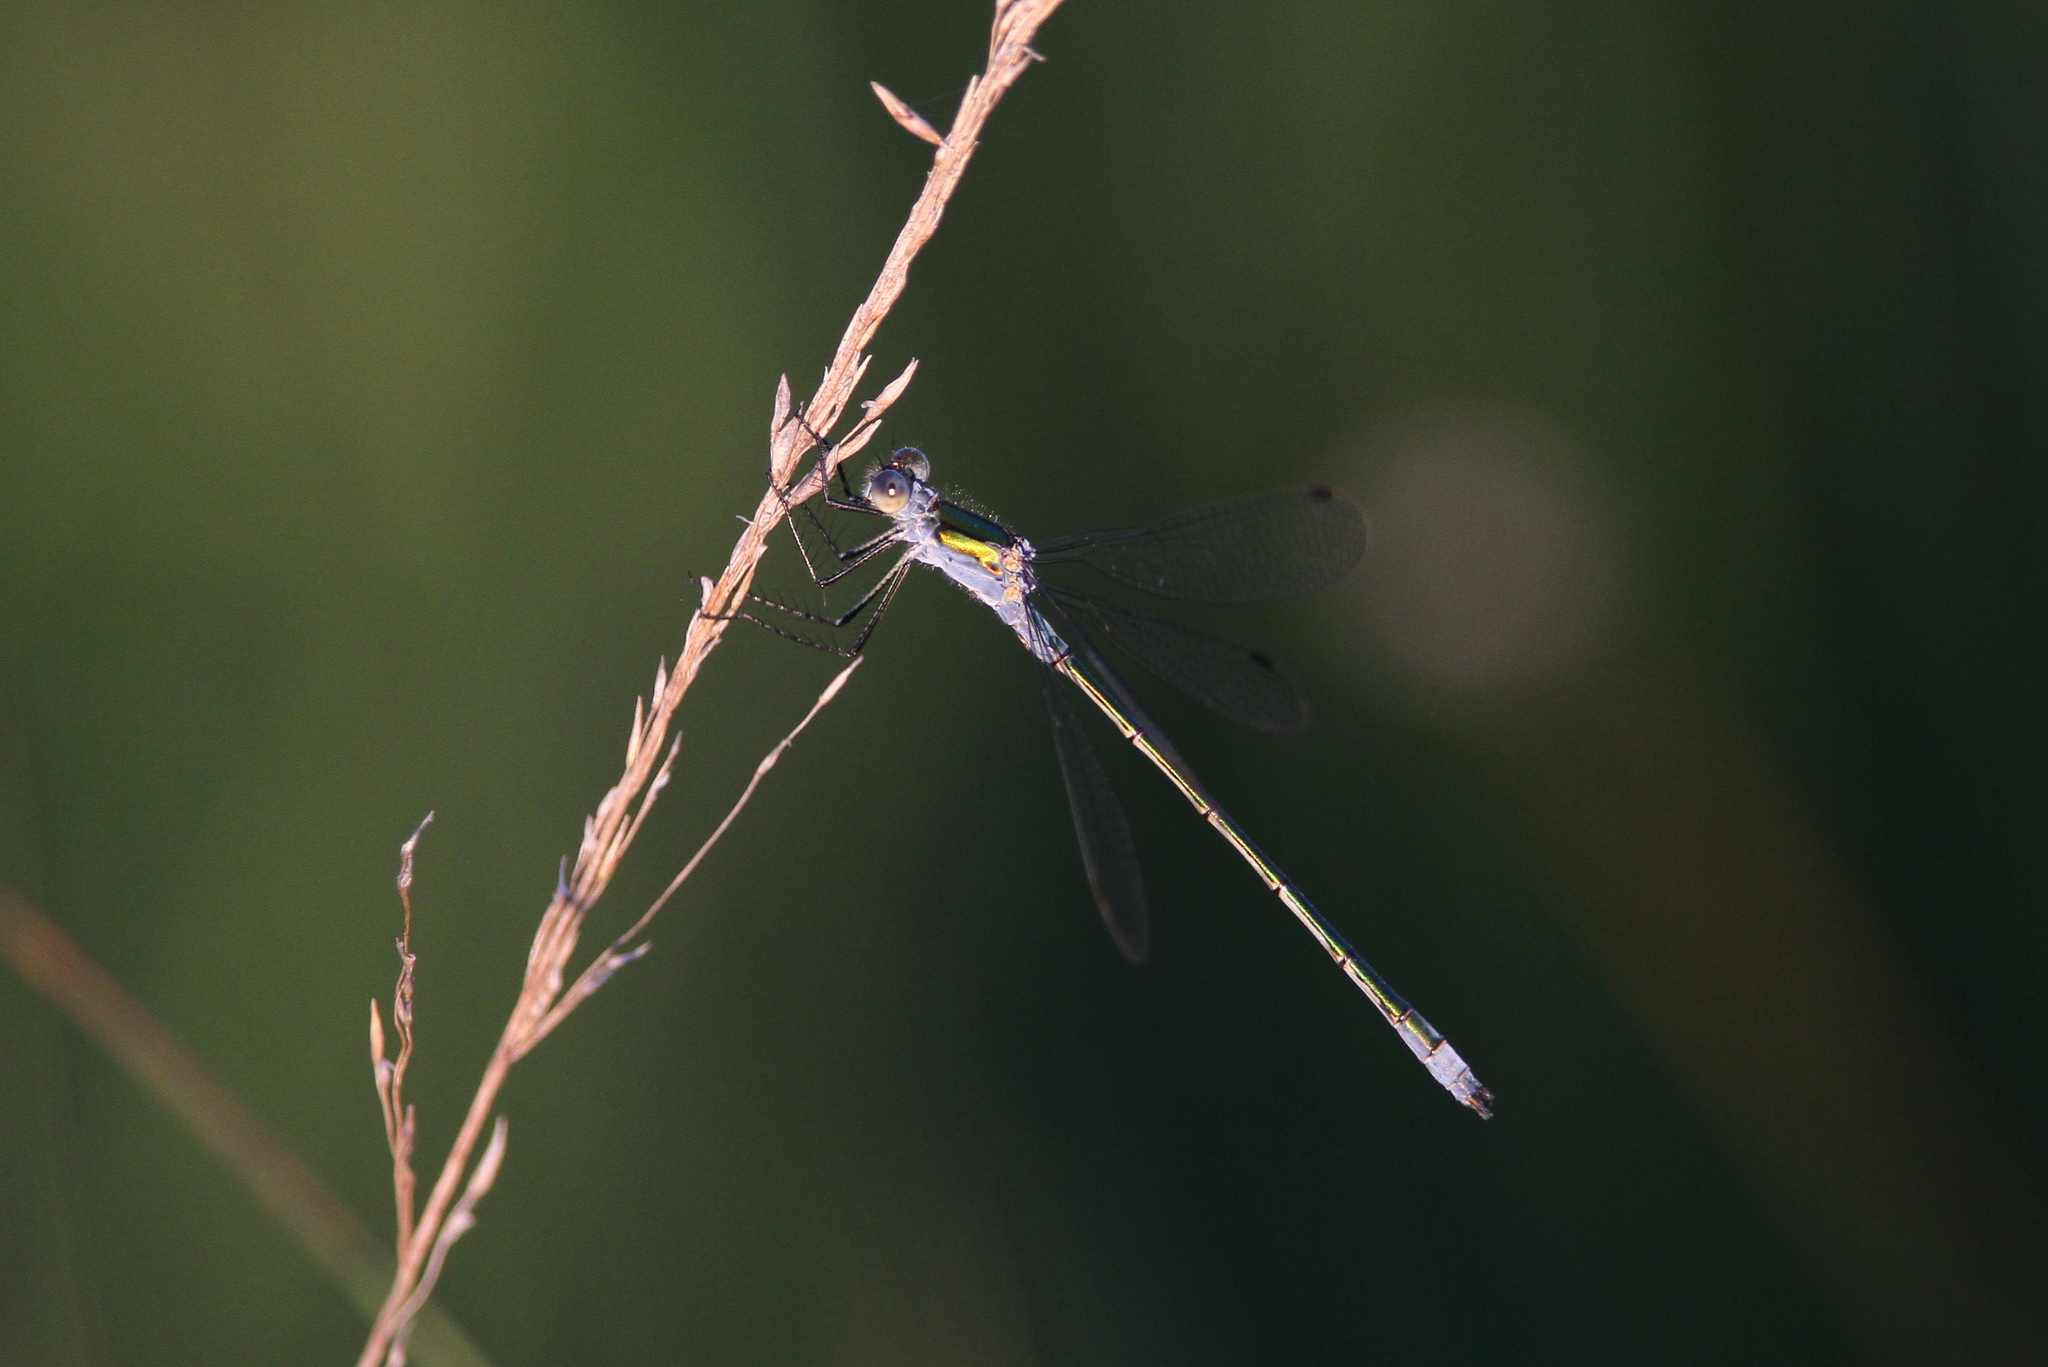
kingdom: Animalia
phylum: Arthropoda
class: Insecta
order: Odonata
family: Lestidae
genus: Lestes
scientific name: Lestes sponsa
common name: Common spreadwing
